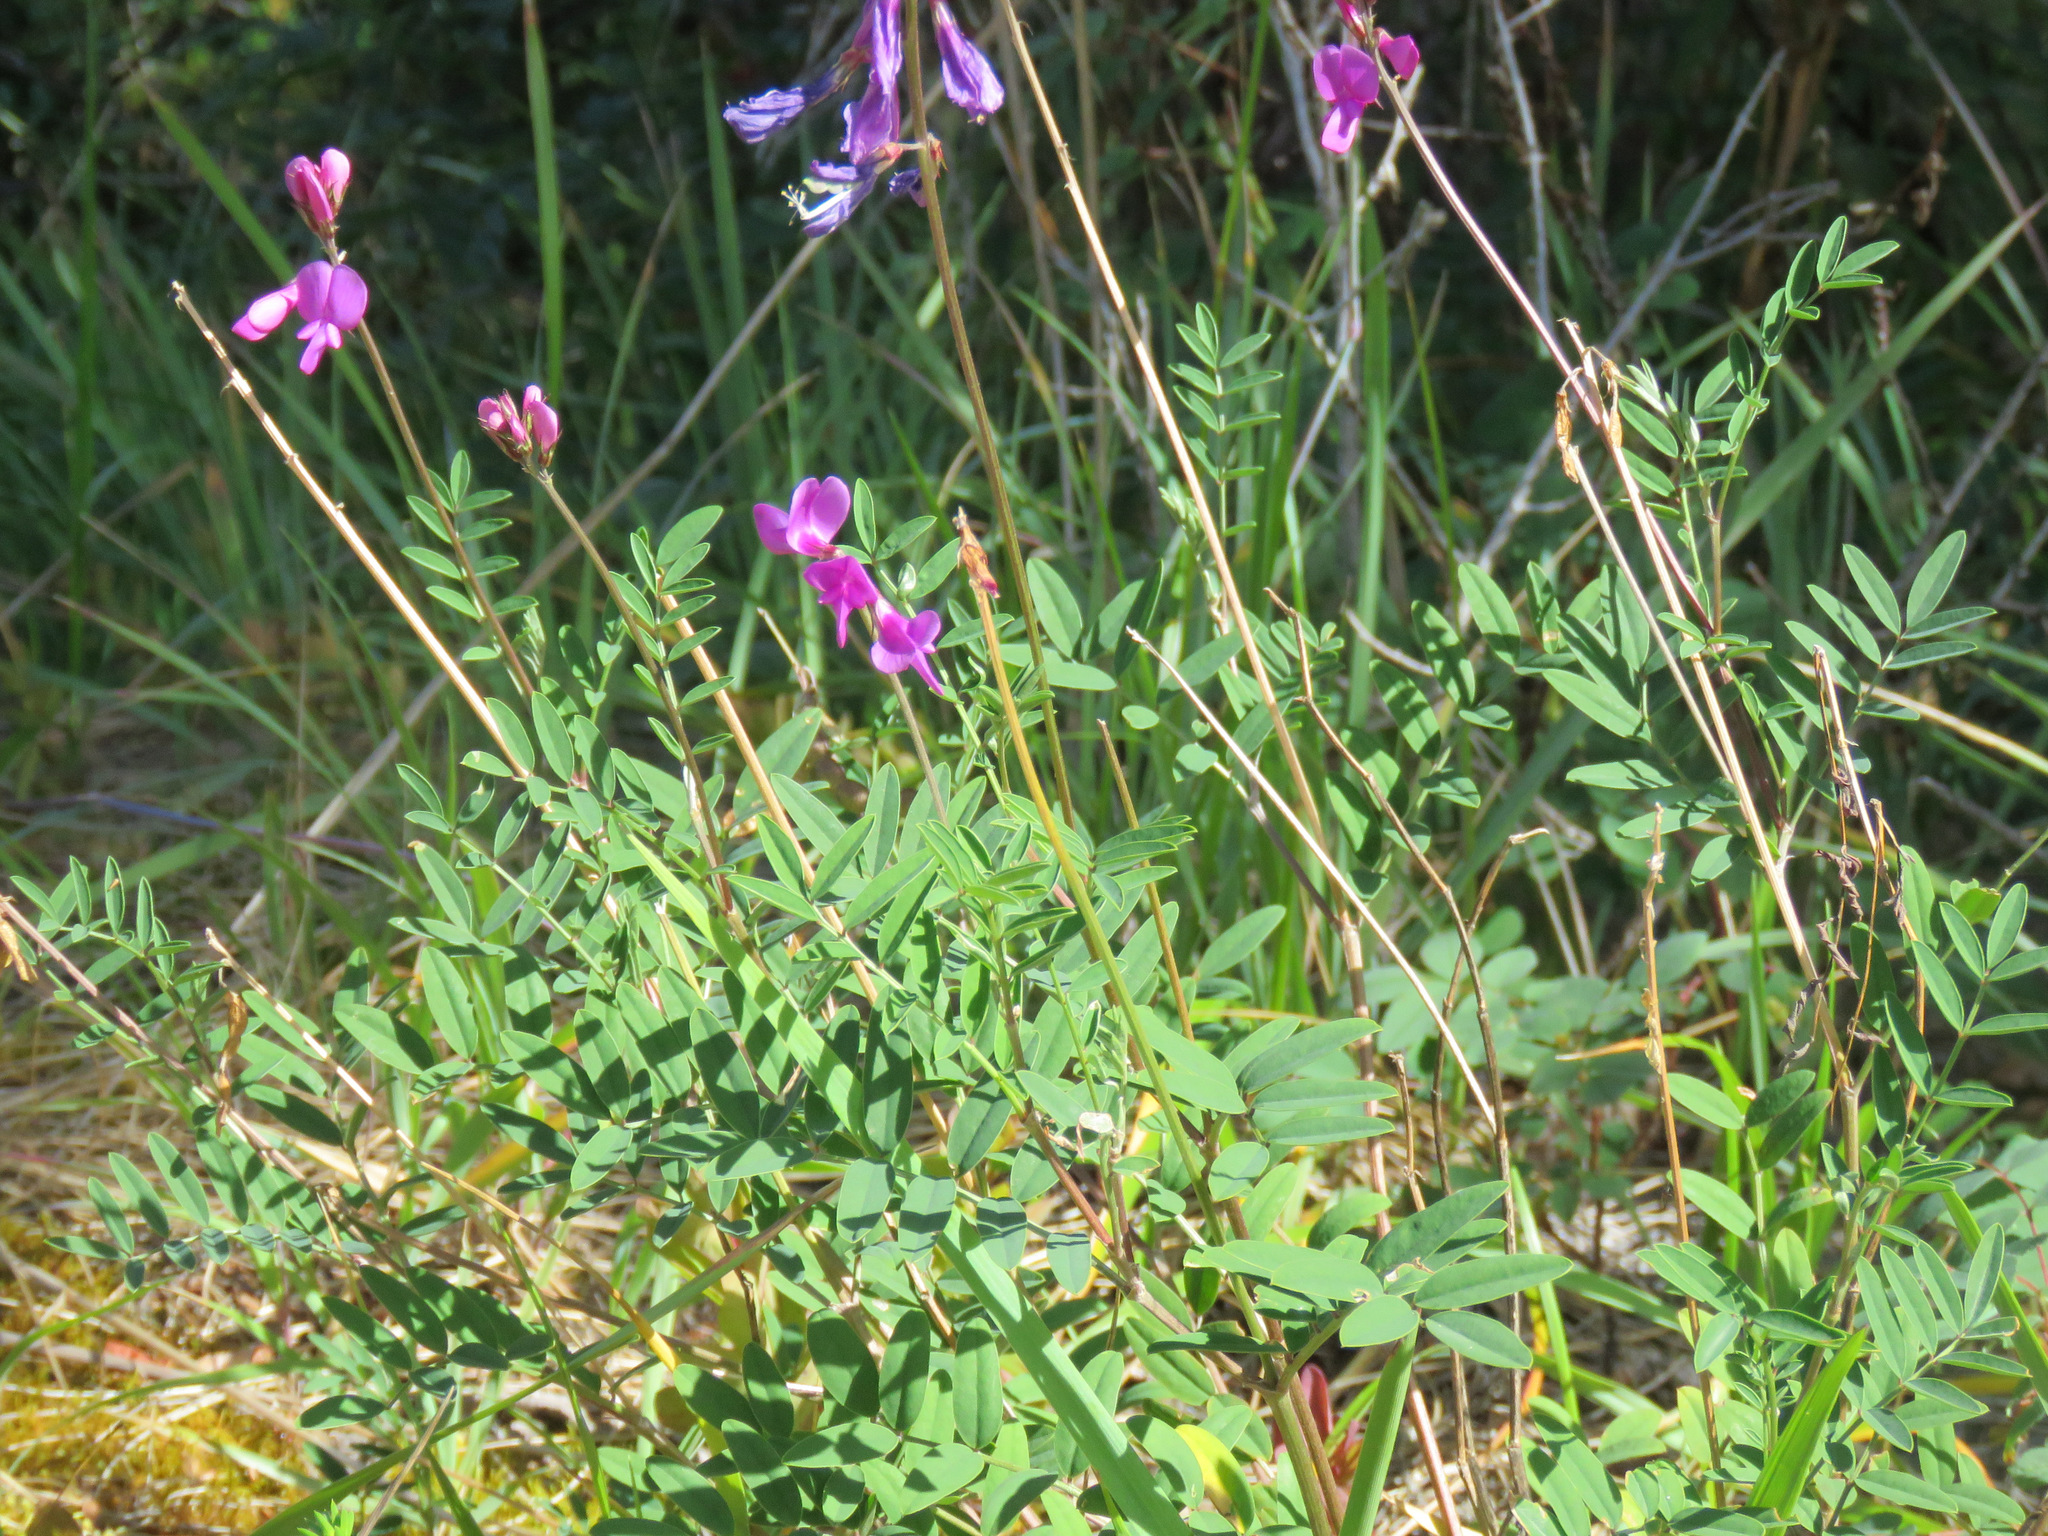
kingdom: Plantae
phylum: Tracheophyta
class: Magnoliopsida
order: Fabales
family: Fabaceae
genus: Hedysarum
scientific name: Hedysarum boreale
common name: Northern sweet-vetch
